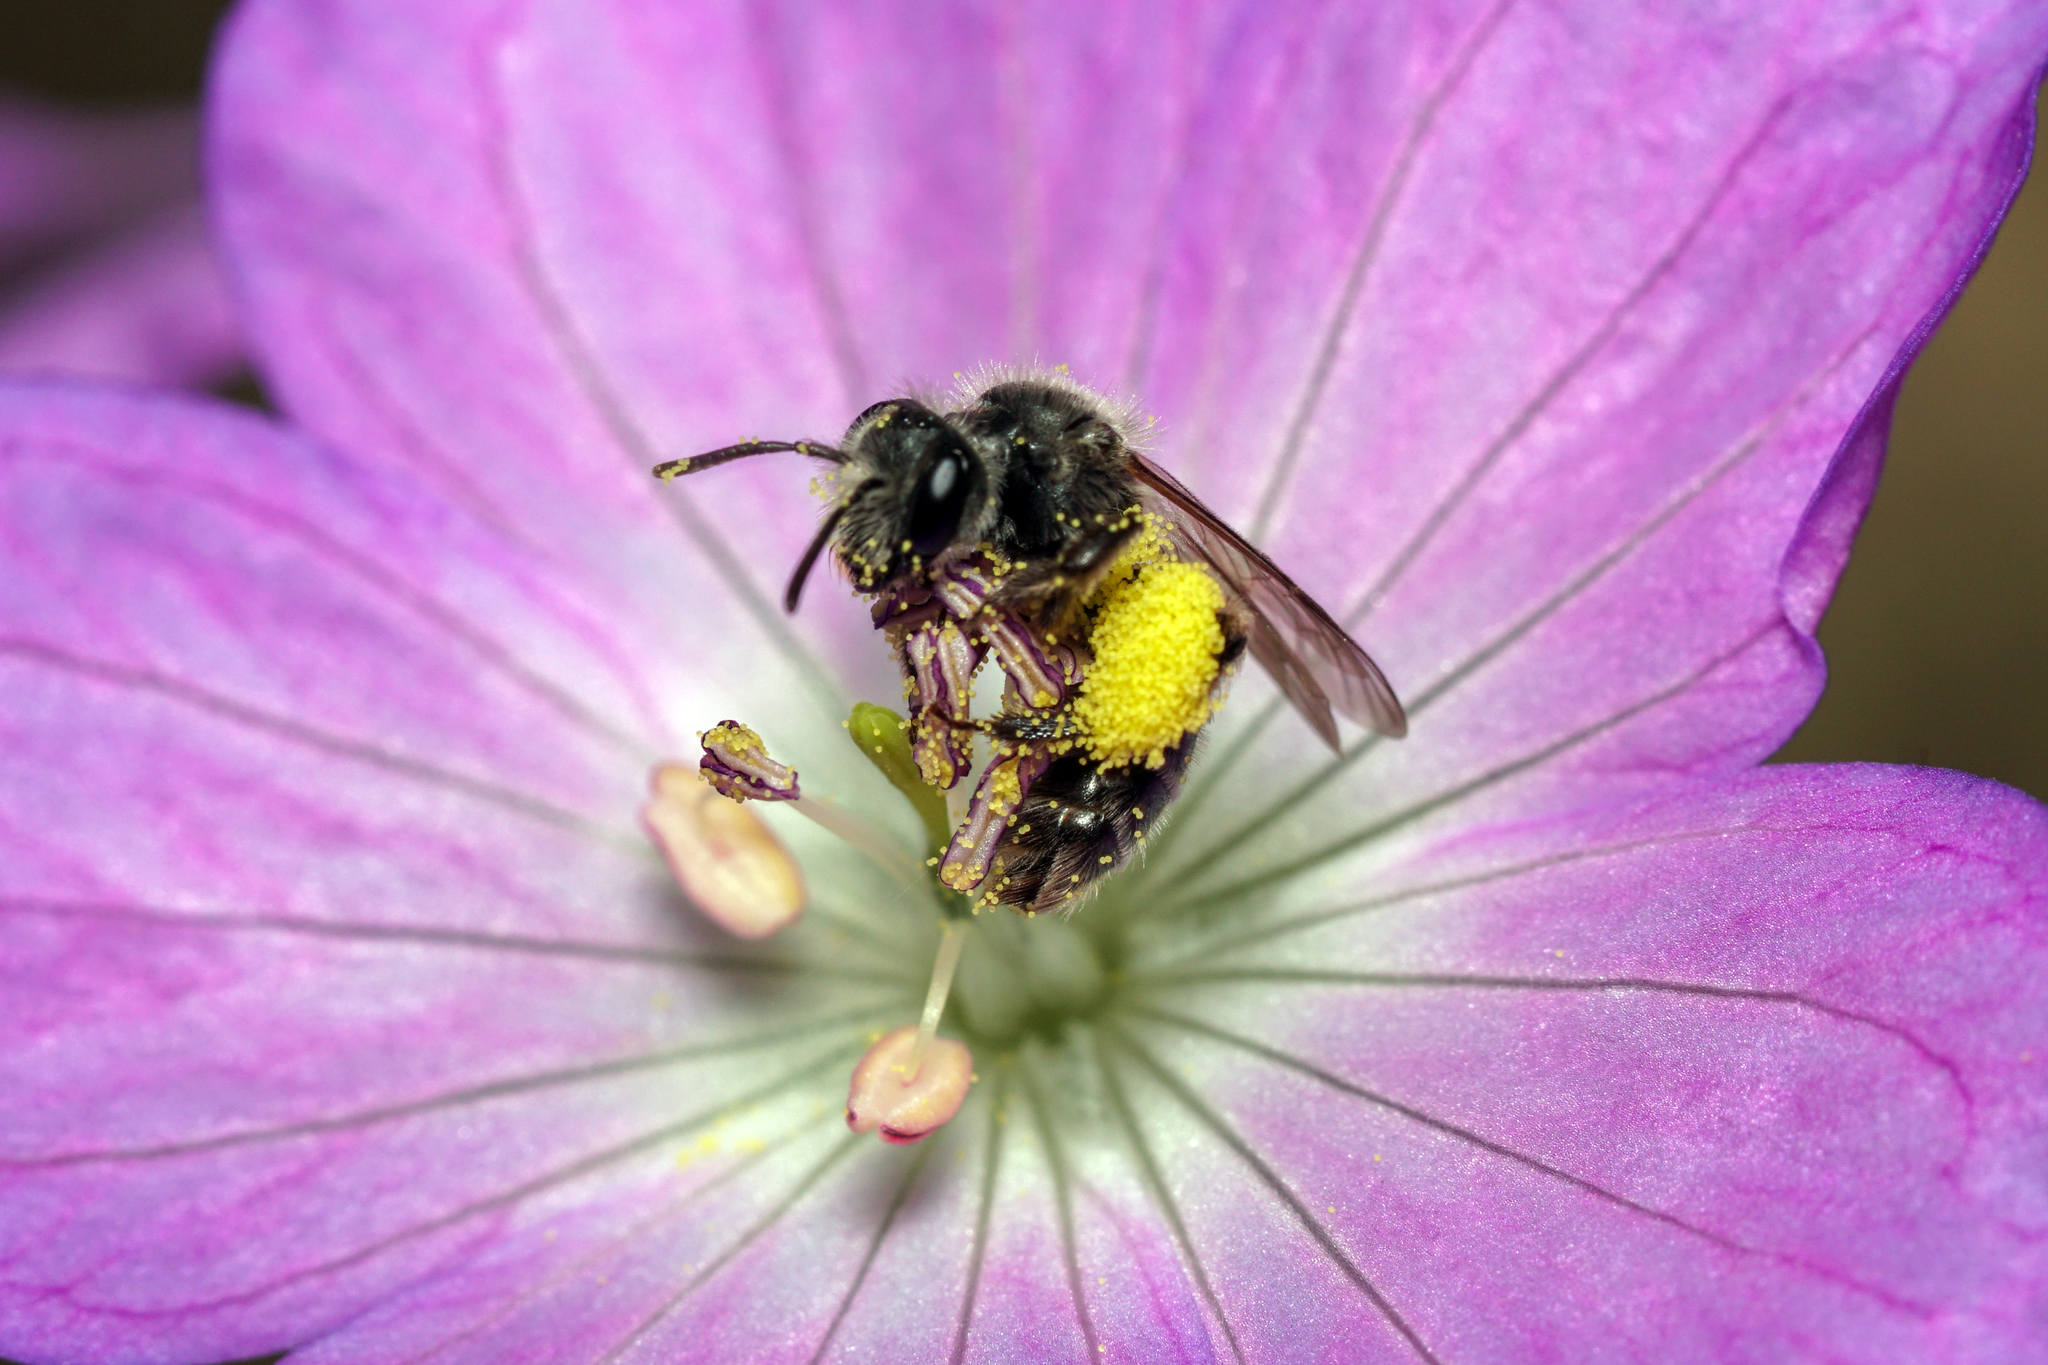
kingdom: Animalia
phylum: Arthropoda
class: Insecta
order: Hymenoptera
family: Andrenidae
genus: Andrena
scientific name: Andrena distans
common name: Cranesbill miner
